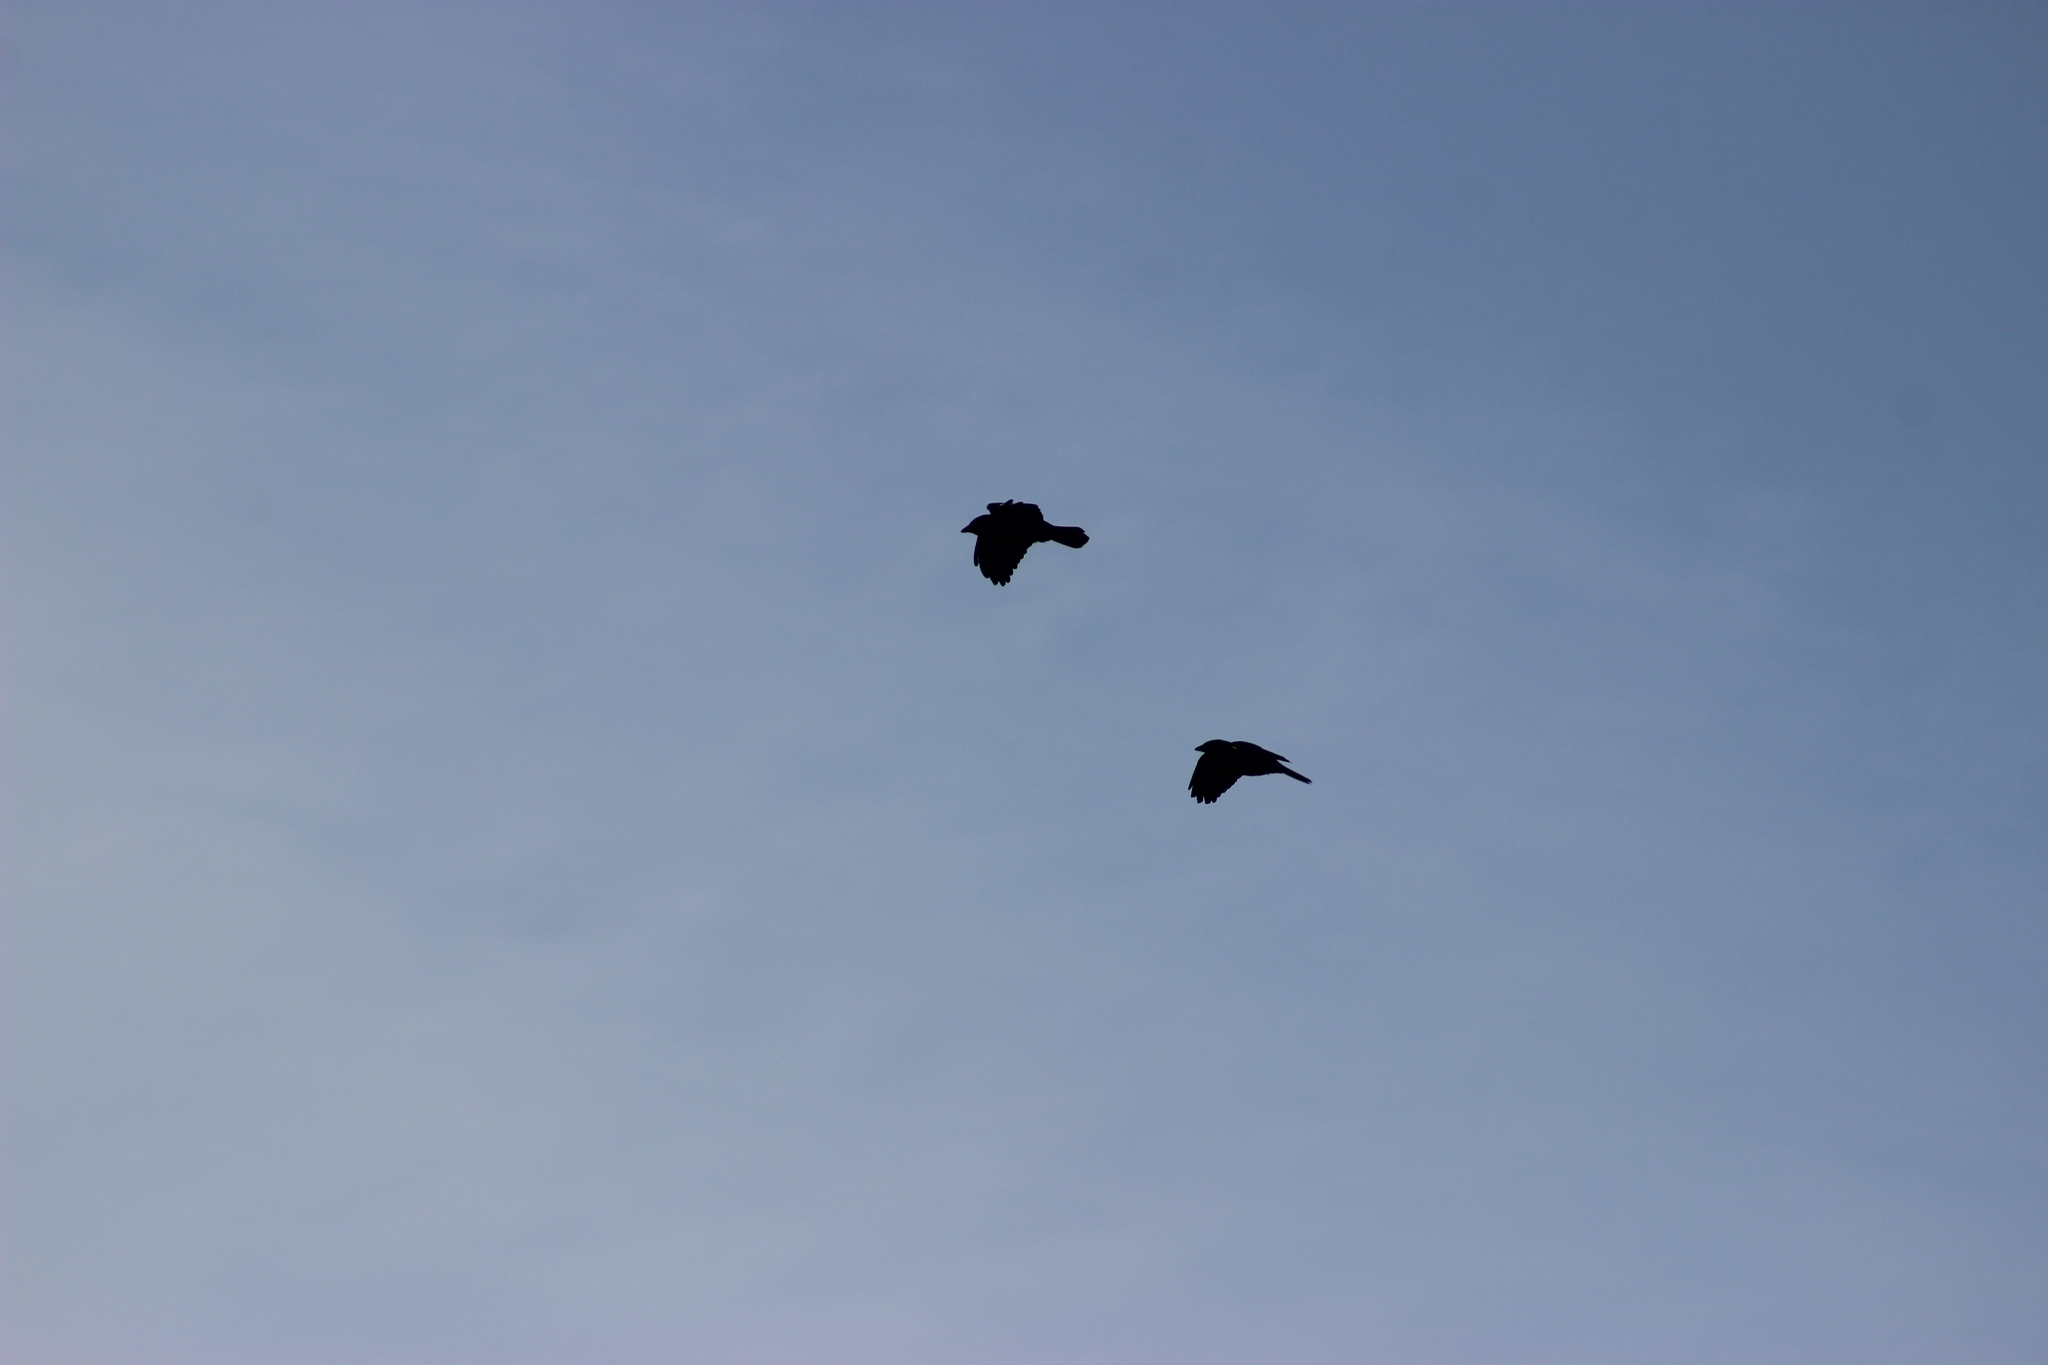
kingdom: Animalia
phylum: Chordata
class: Aves
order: Passeriformes
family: Corvidae
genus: Coloeus
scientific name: Coloeus monedula
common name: Western jackdaw
